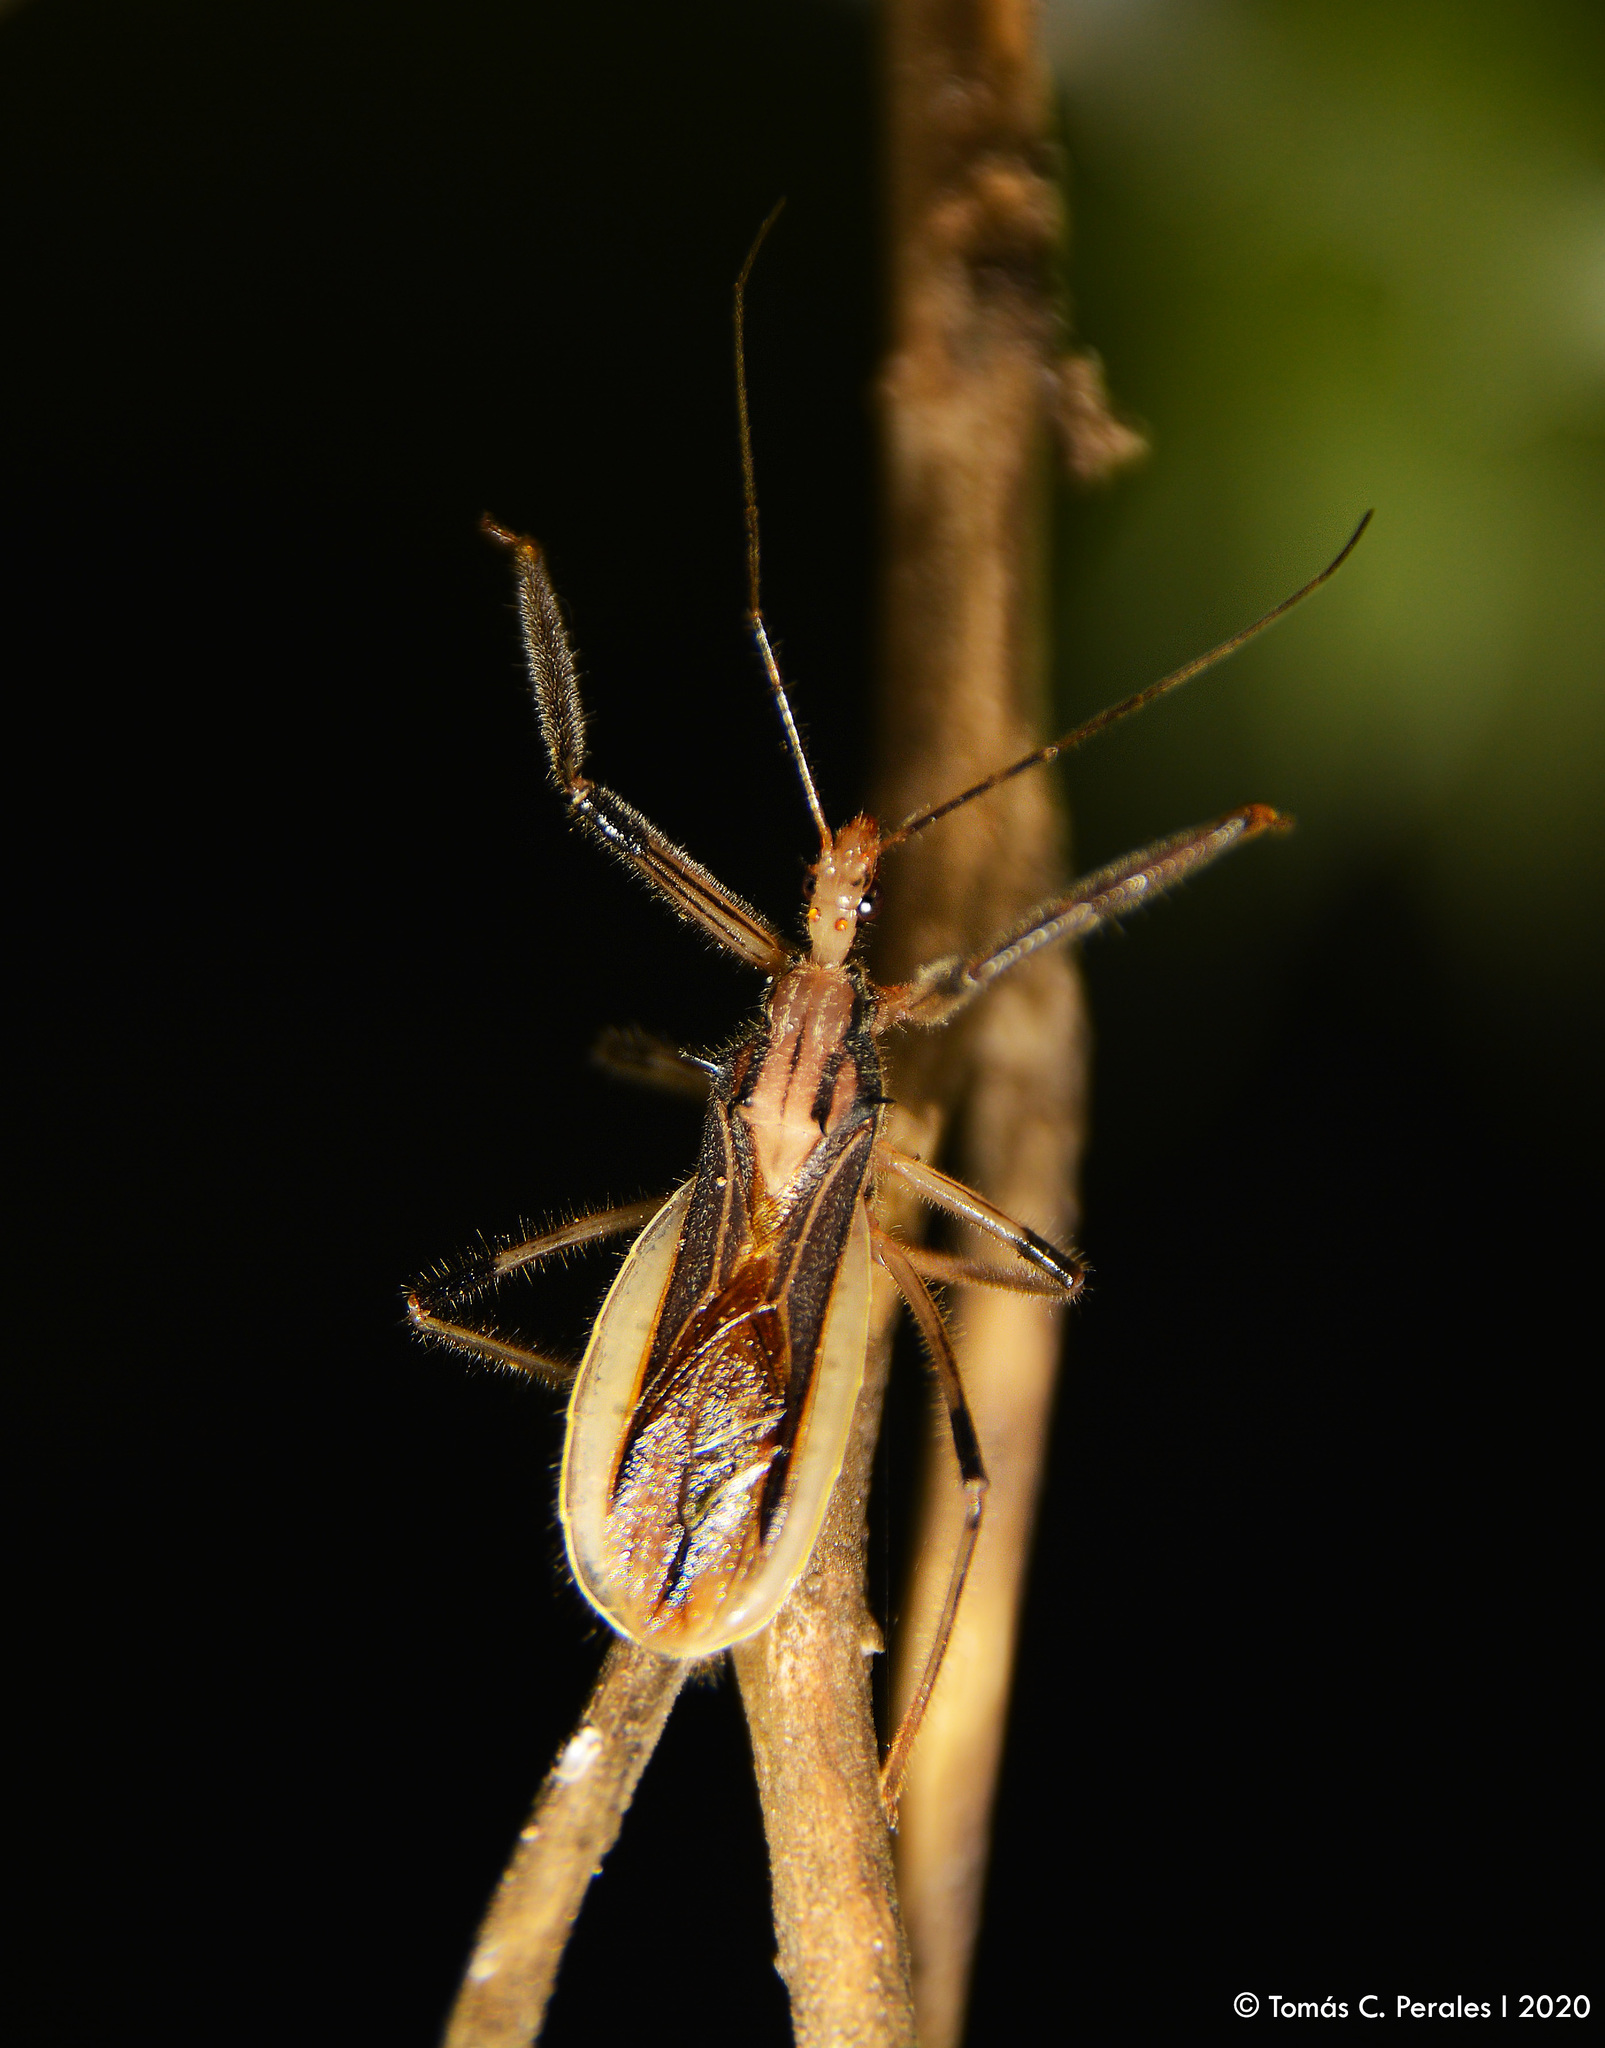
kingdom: Animalia
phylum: Arthropoda
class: Insecta
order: Hemiptera
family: Reduviidae
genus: Repipta
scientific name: Repipta argentinensis
